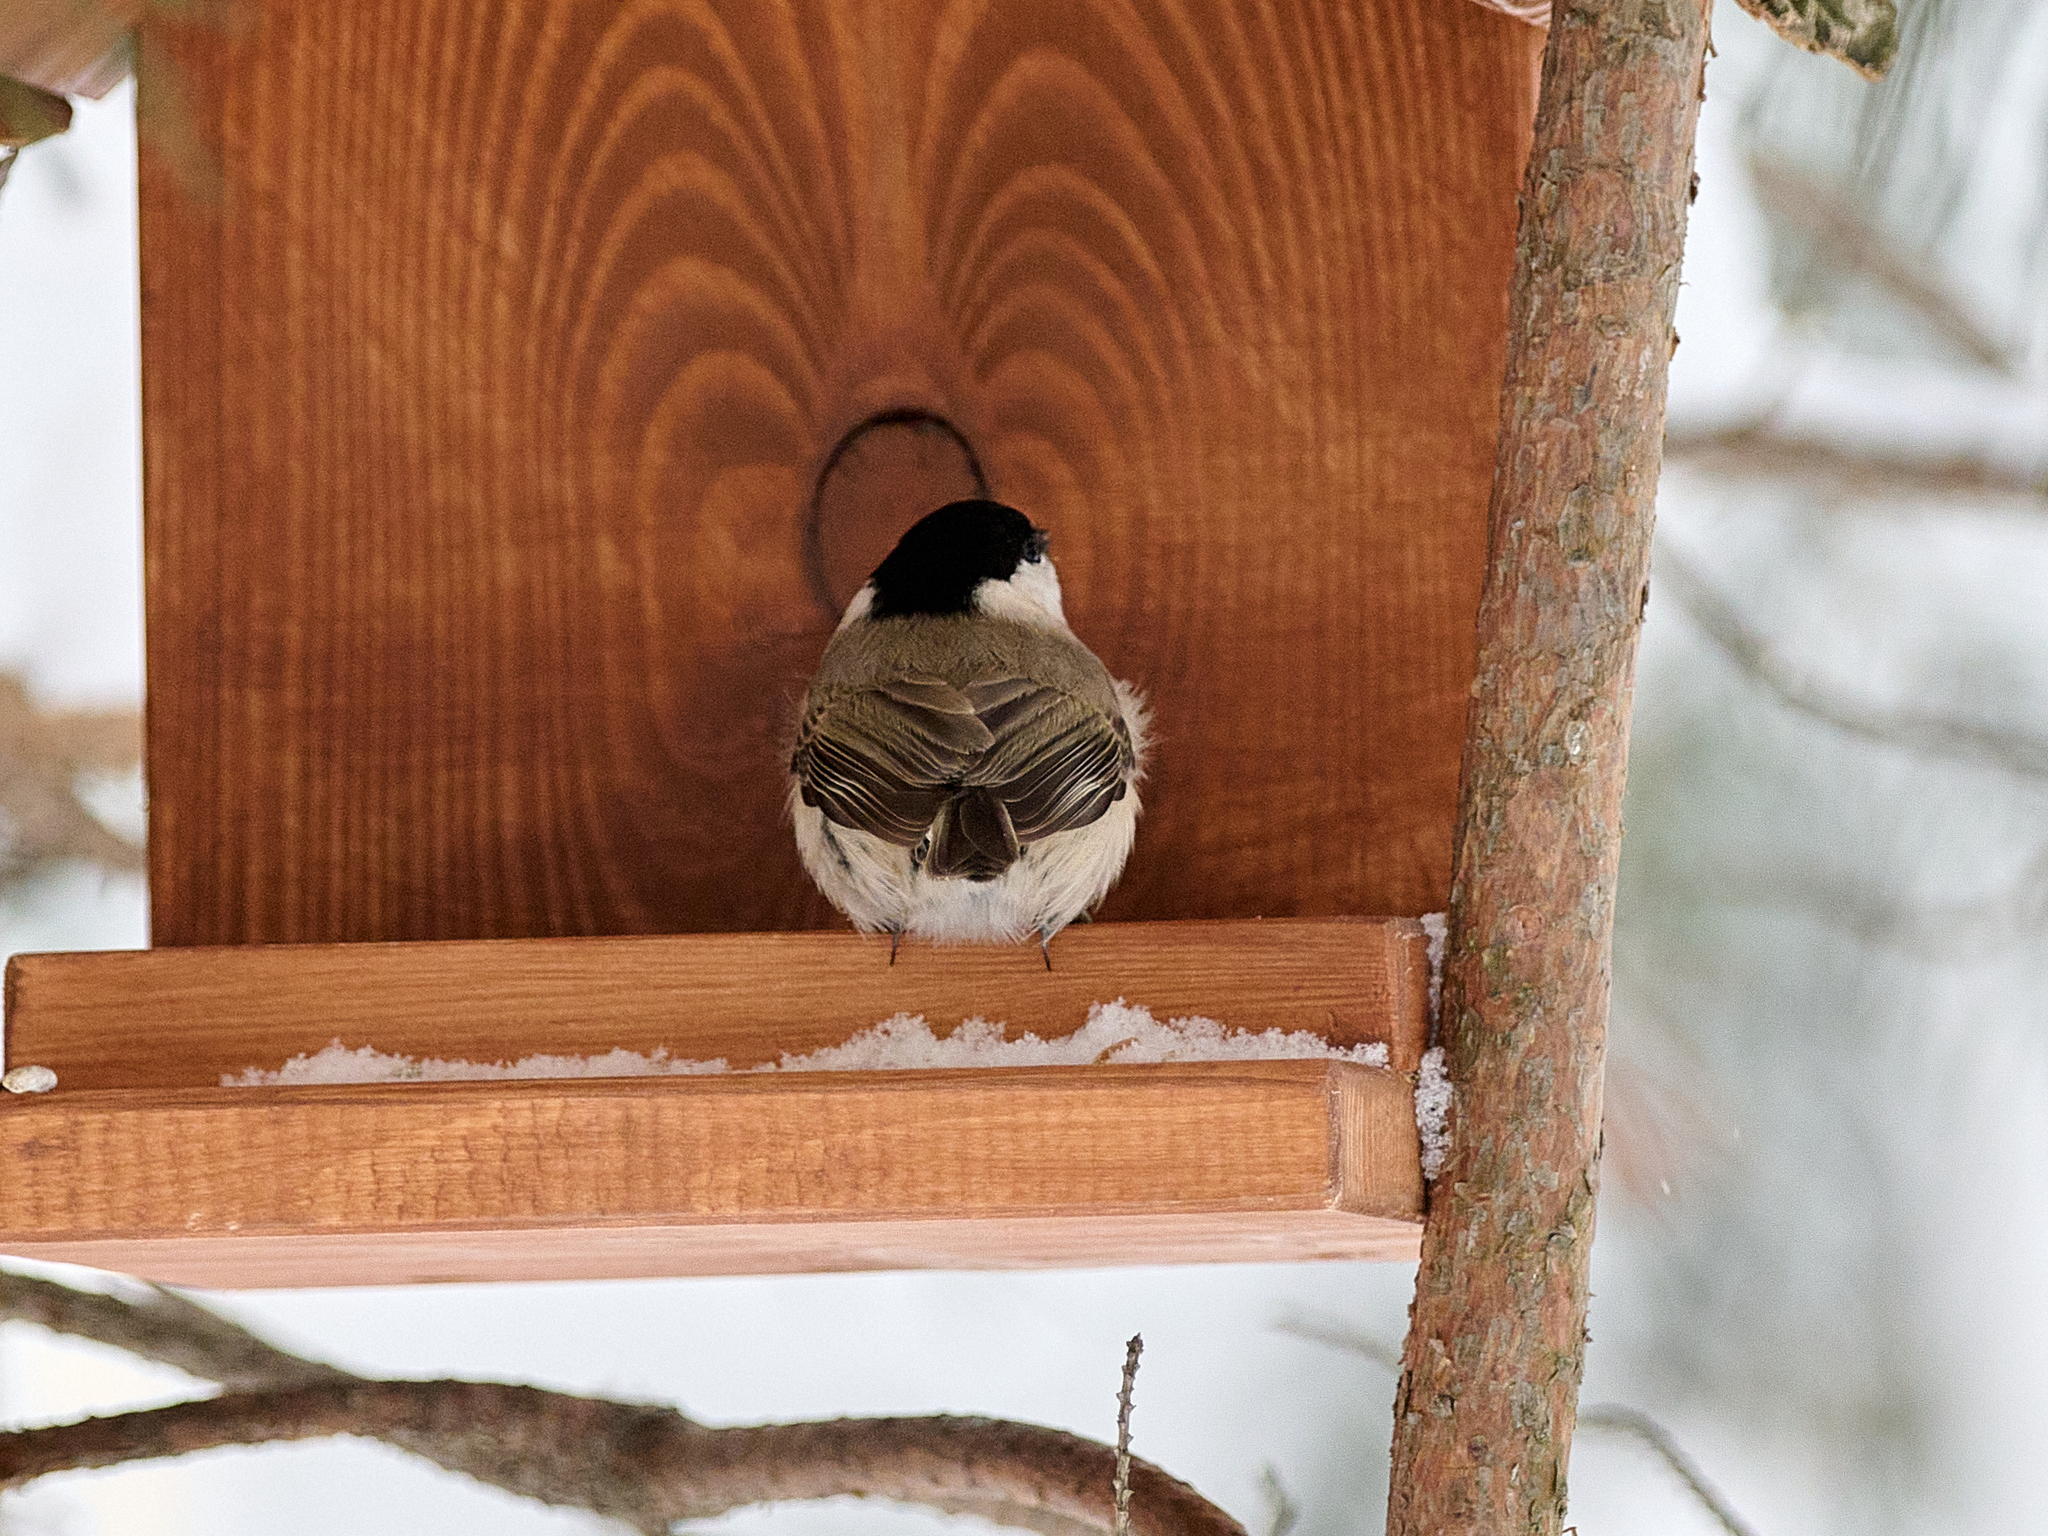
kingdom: Animalia
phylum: Chordata
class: Aves
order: Passeriformes
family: Paridae
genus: Poecile
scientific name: Poecile palustris
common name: Marsh tit
